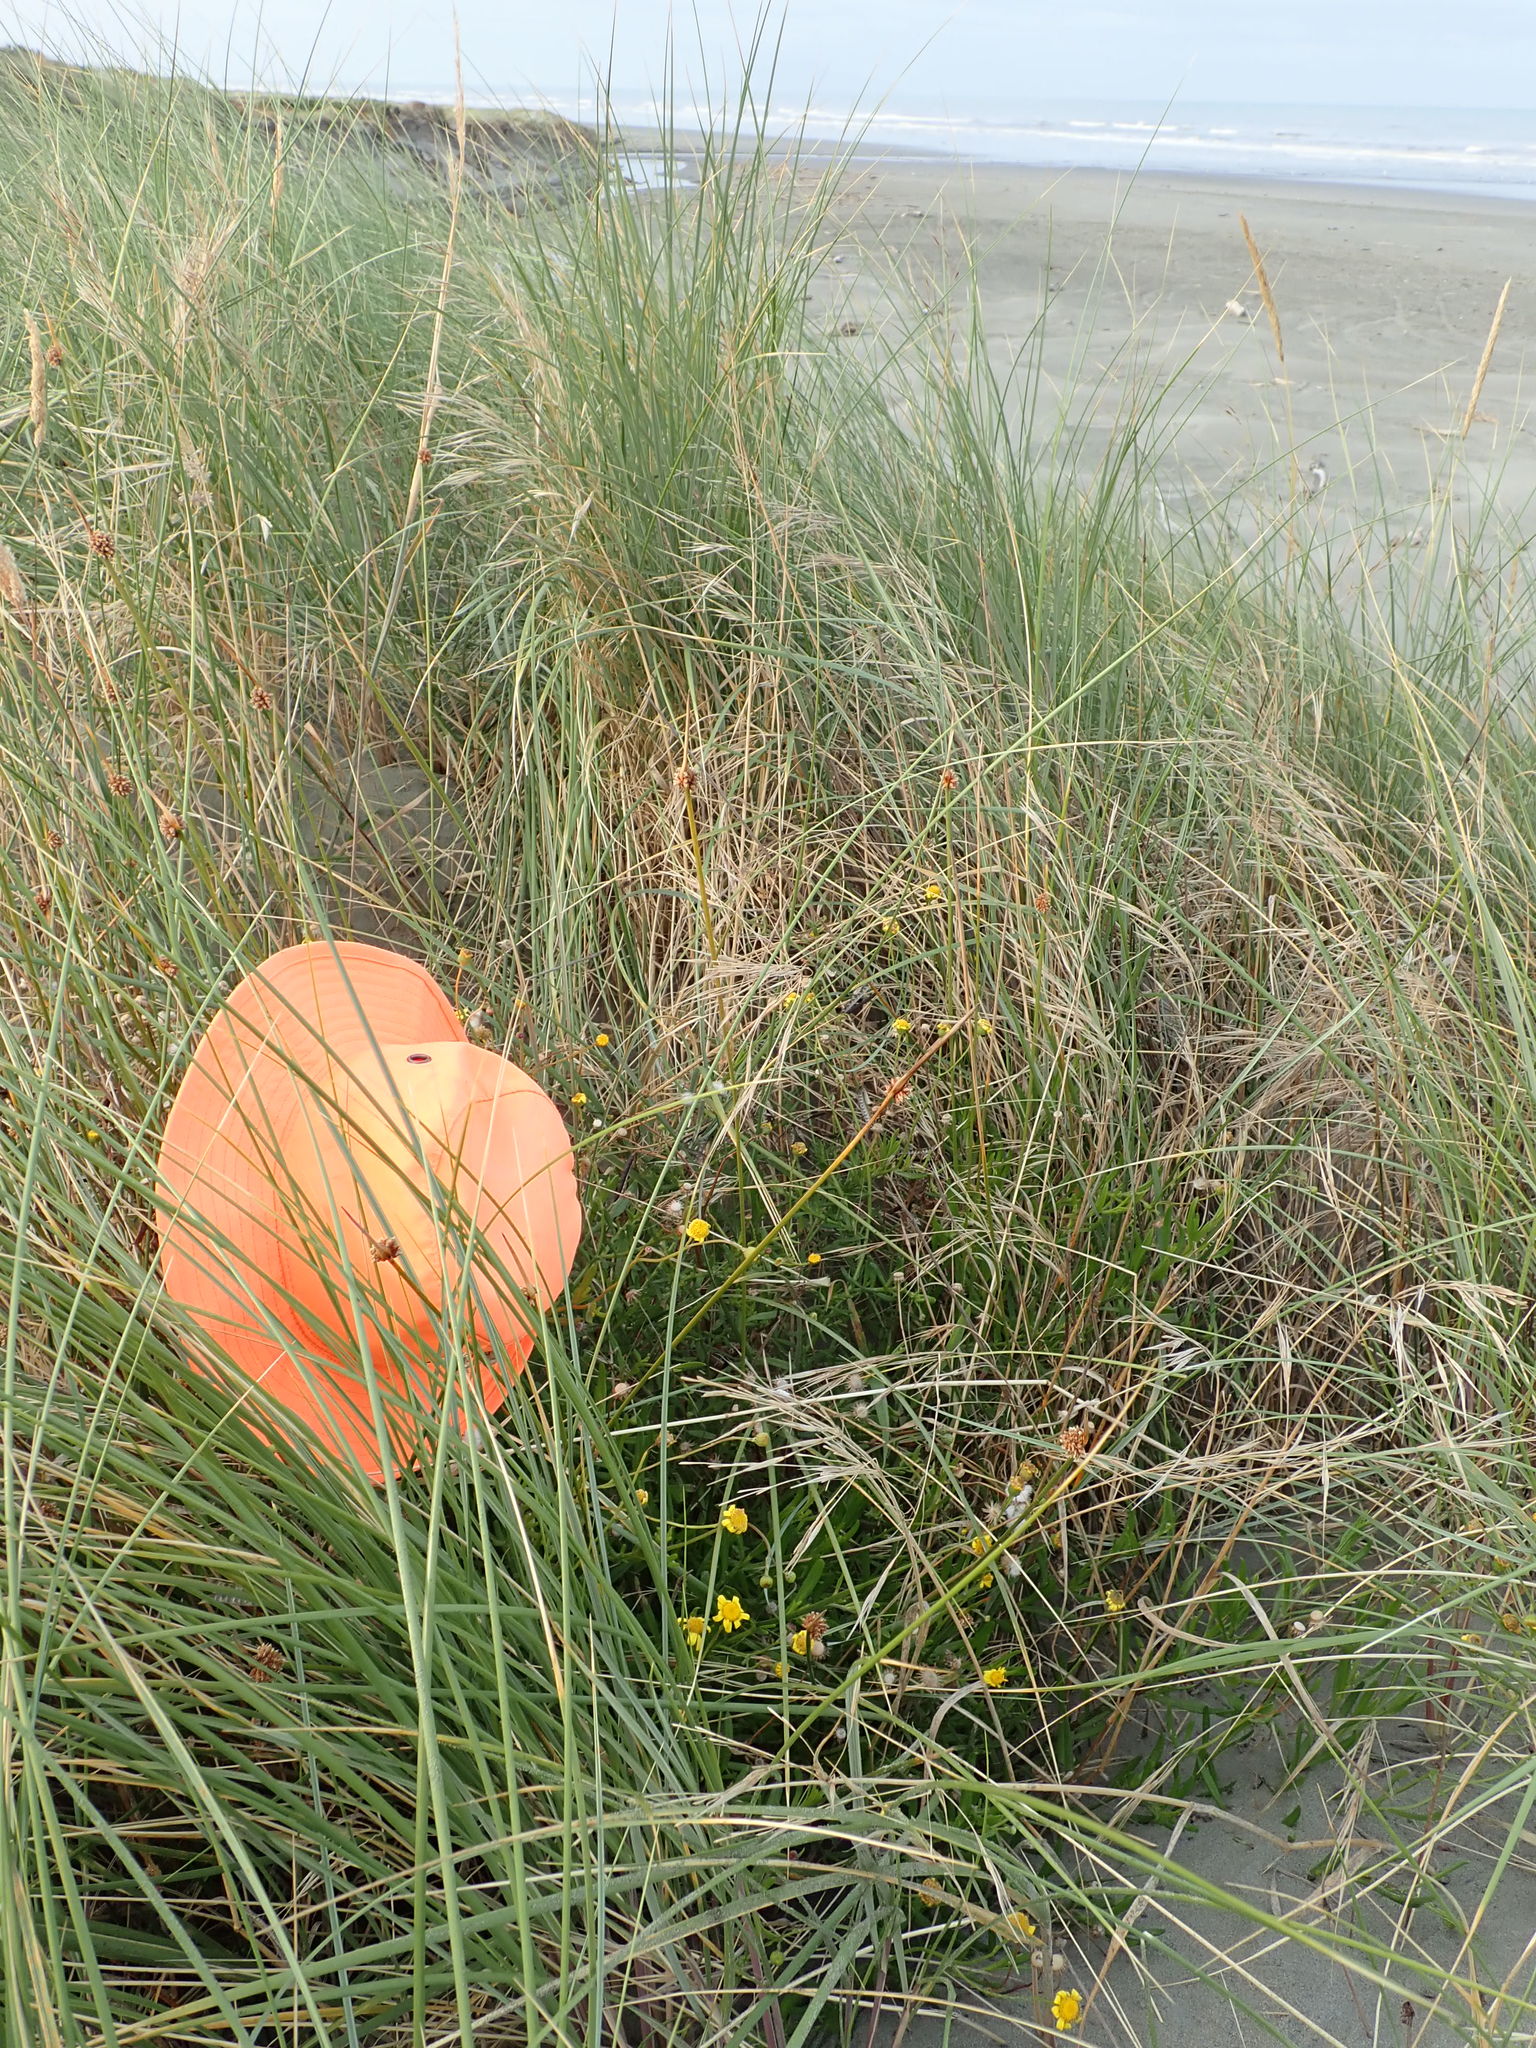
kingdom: Plantae
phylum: Tracheophyta
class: Magnoliopsida
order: Solanales
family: Solanaceae
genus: Solanum
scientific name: Solanum chenopodioides
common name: Tall nightshade
